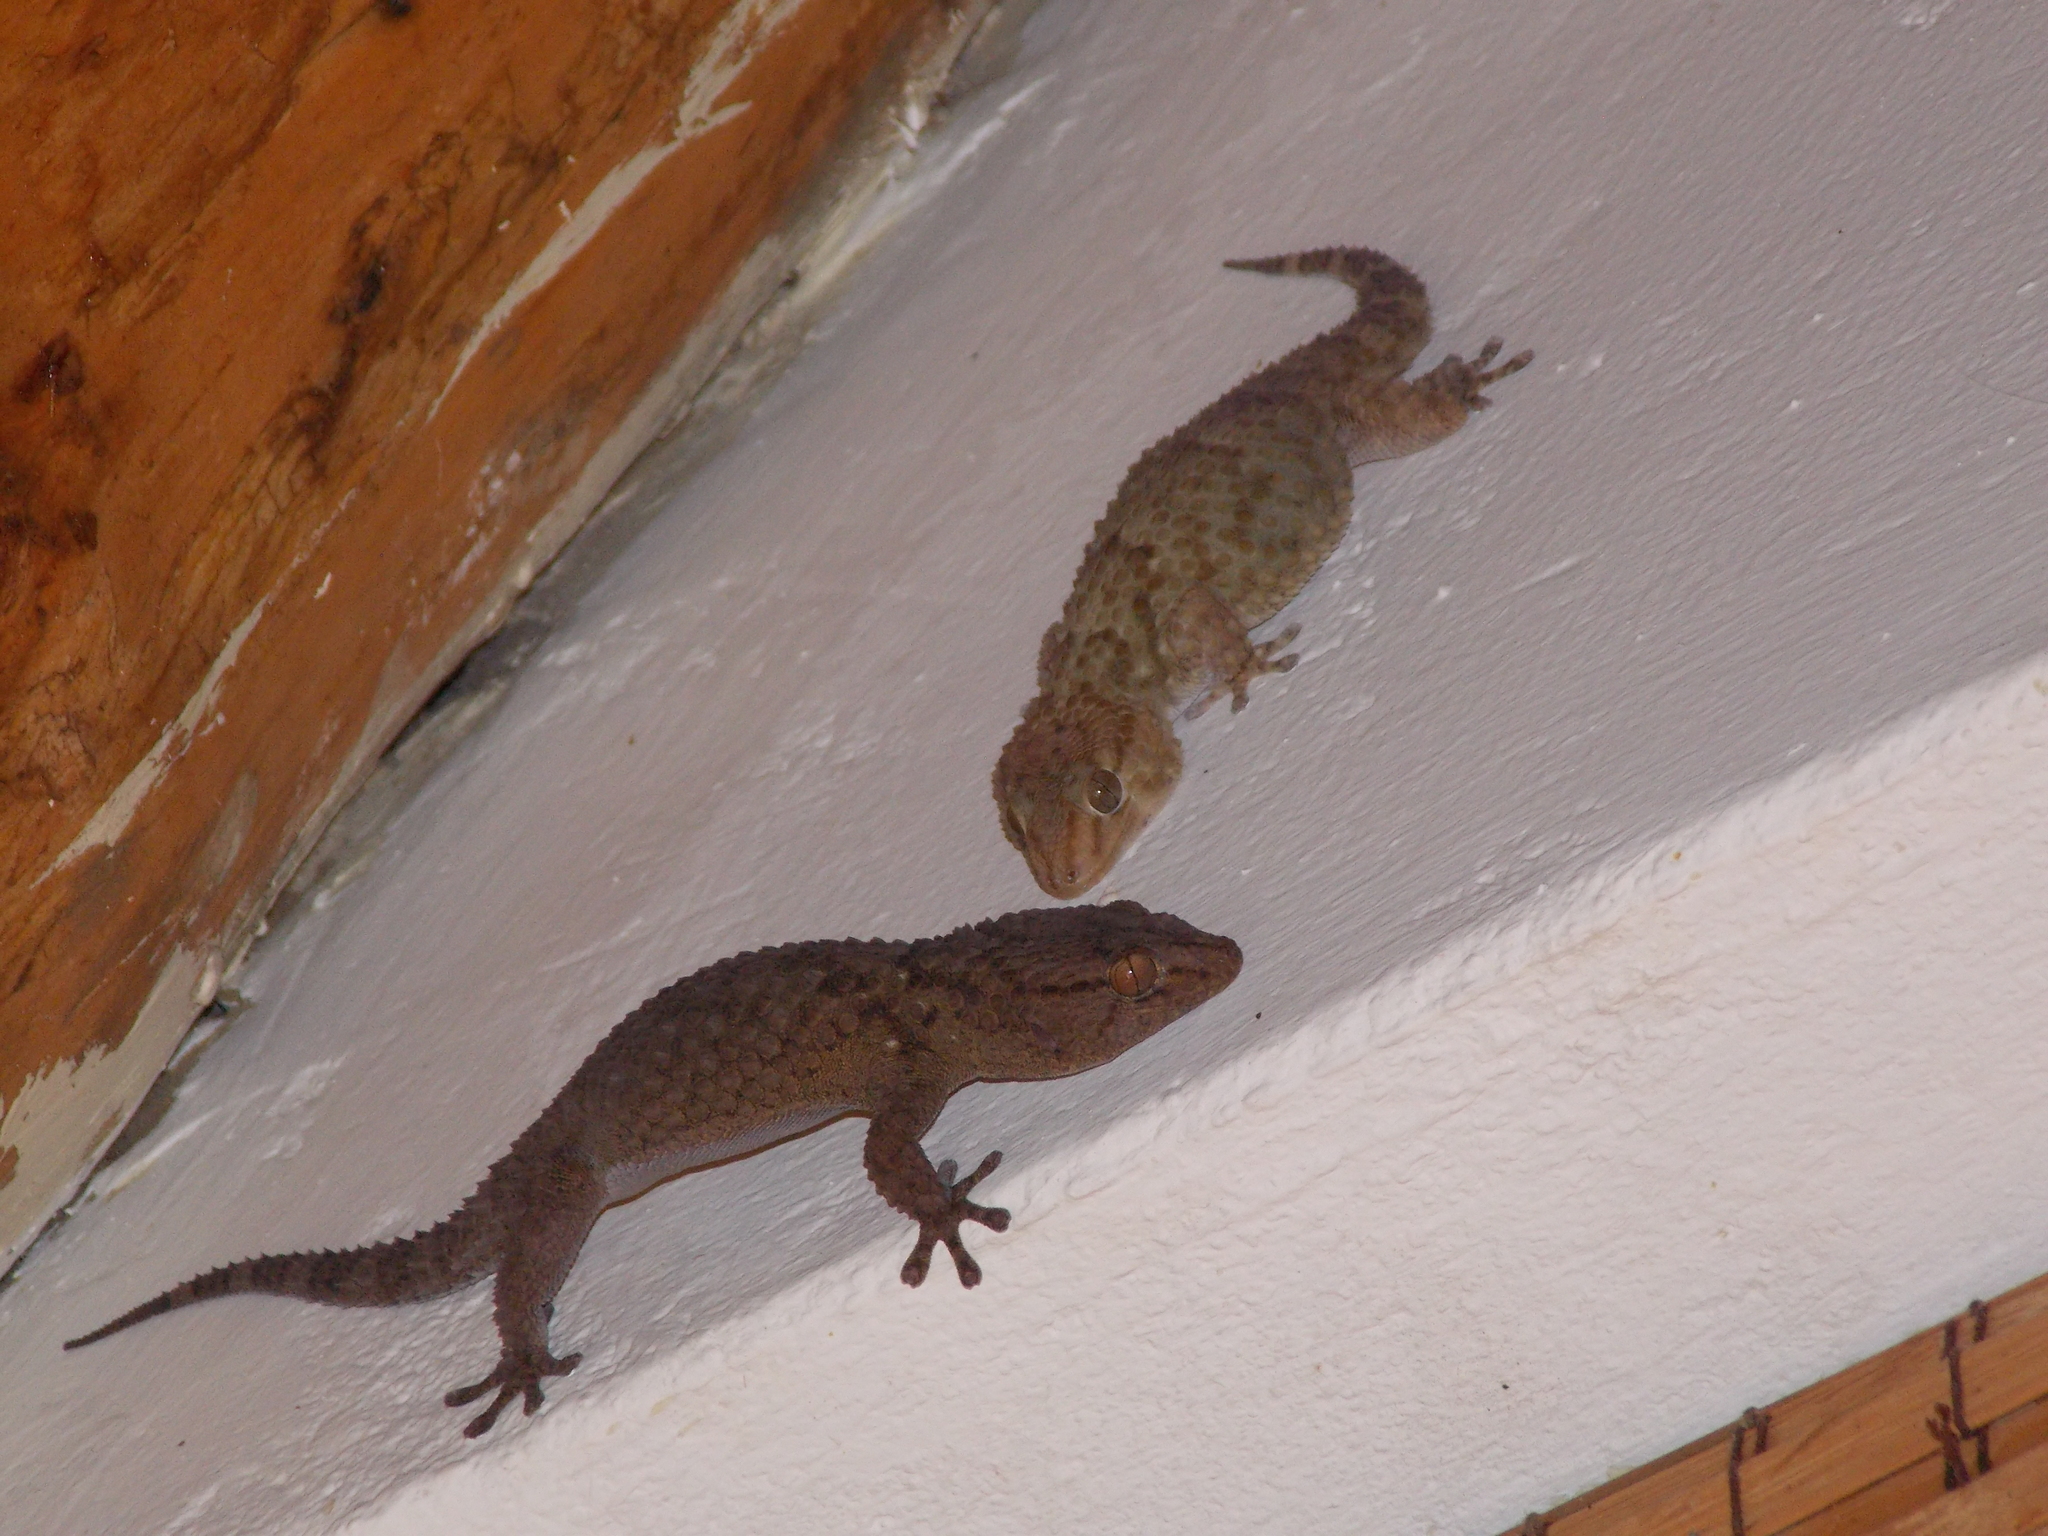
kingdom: Animalia
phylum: Chordata
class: Squamata
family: Gekkonidae
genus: Chondrodactylus
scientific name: Chondrodactylus bibronii
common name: Bibron's gecko
